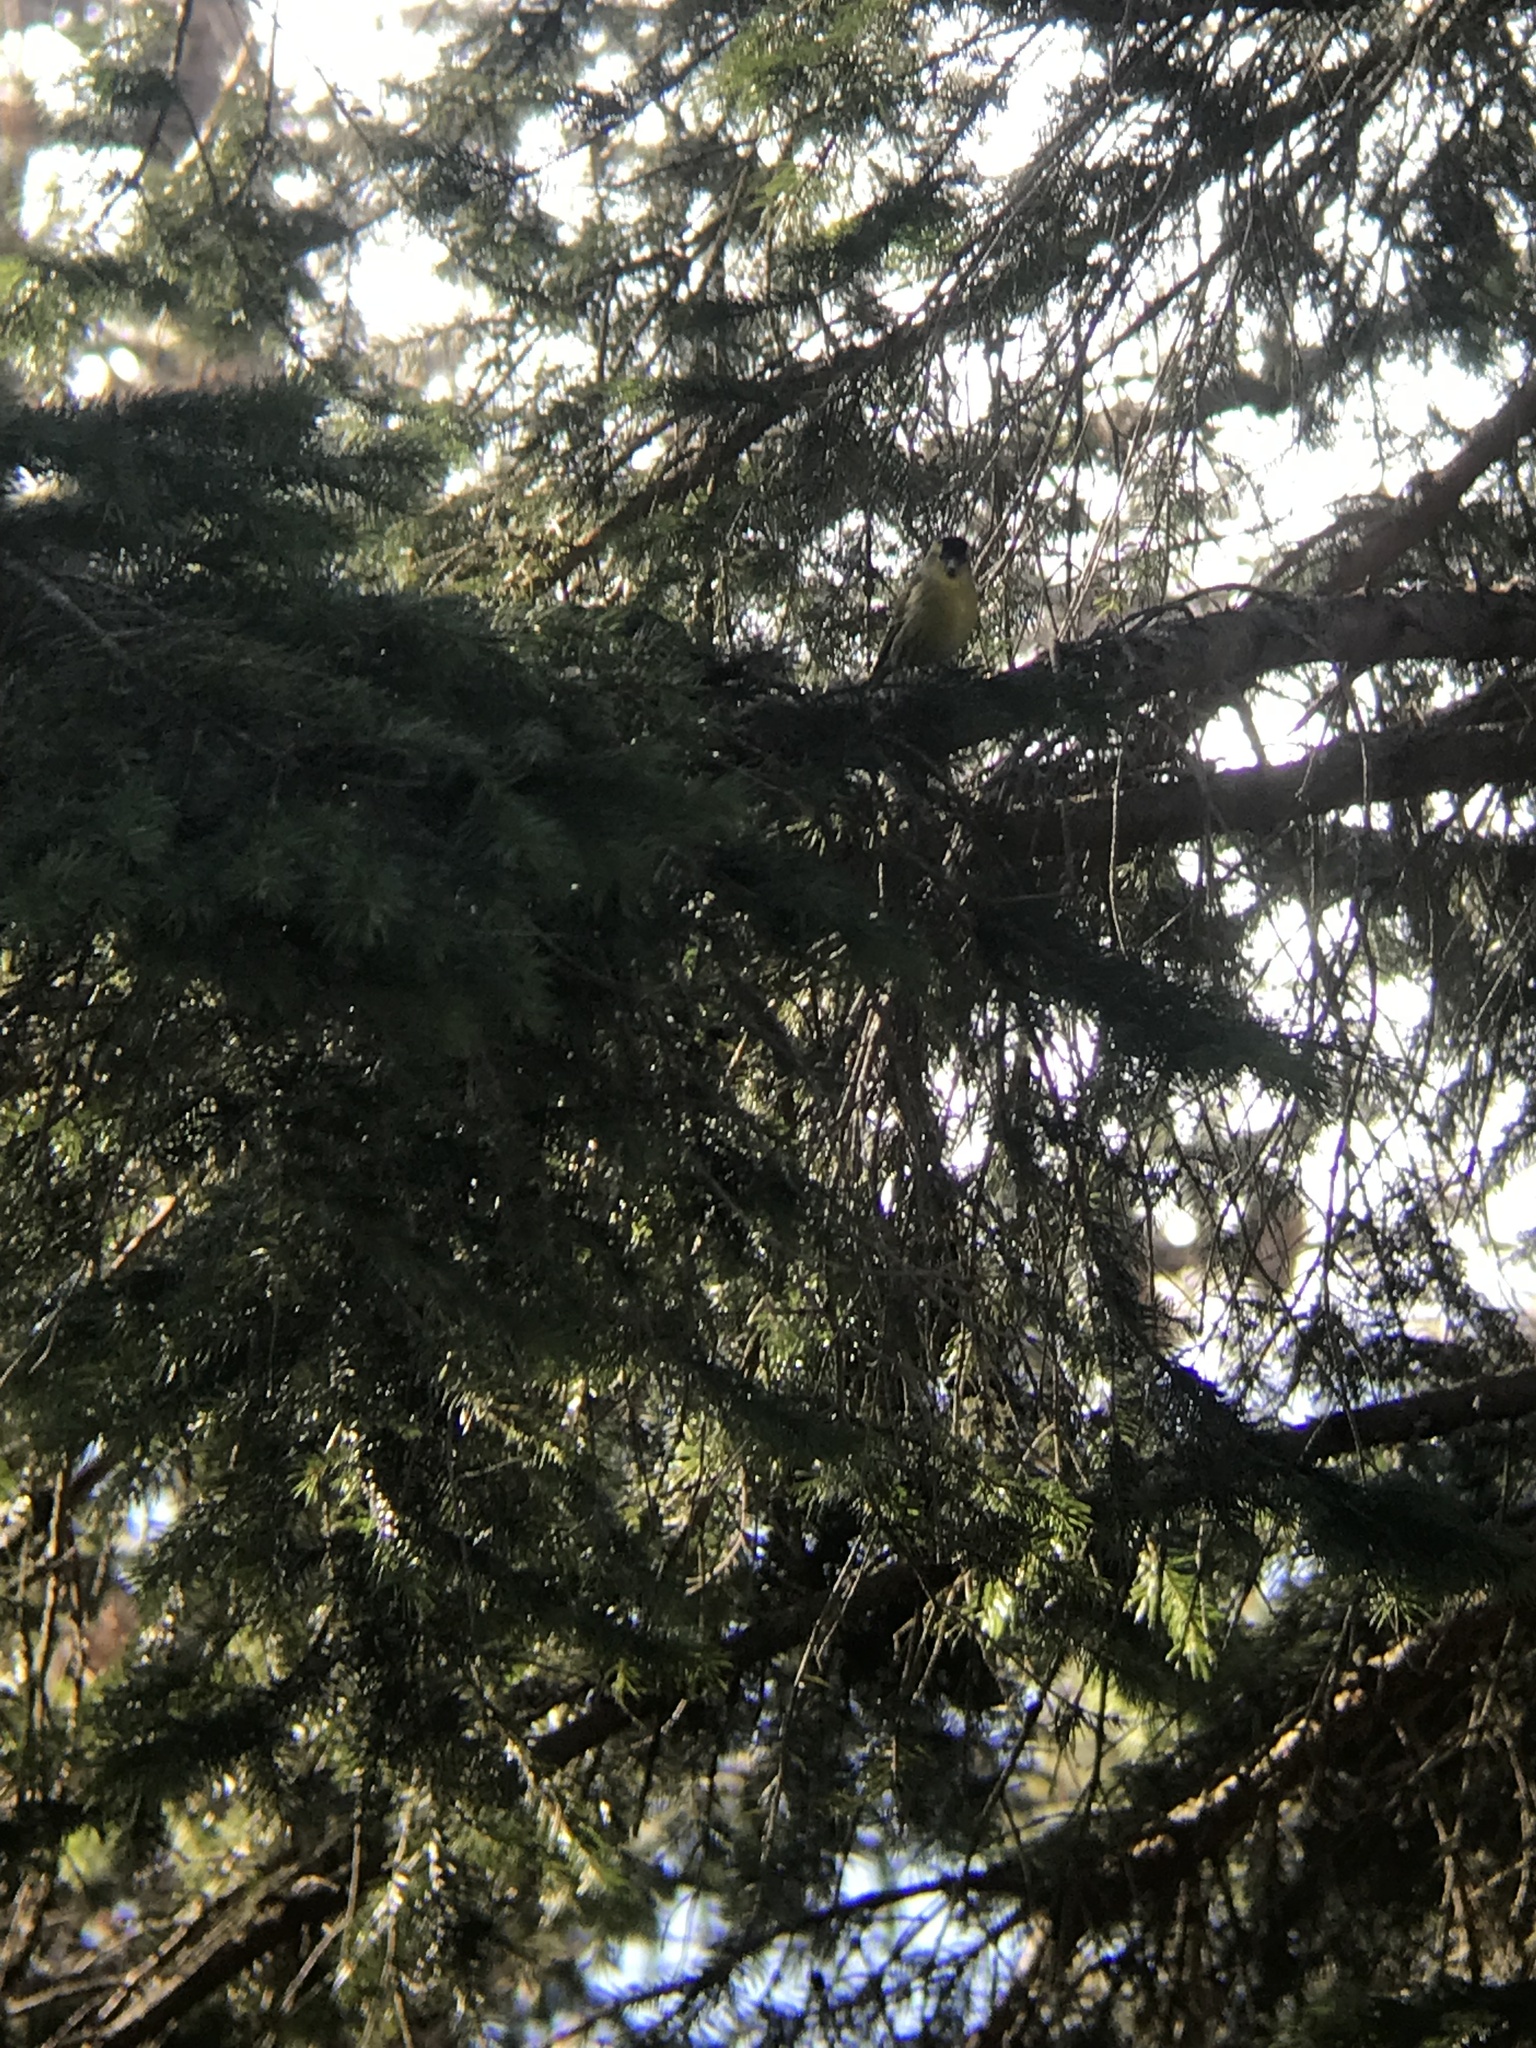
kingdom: Animalia
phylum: Chordata
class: Aves
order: Passeriformes
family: Fringillidae
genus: Spinus
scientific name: Spinus spinus
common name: Eurasian siskin
